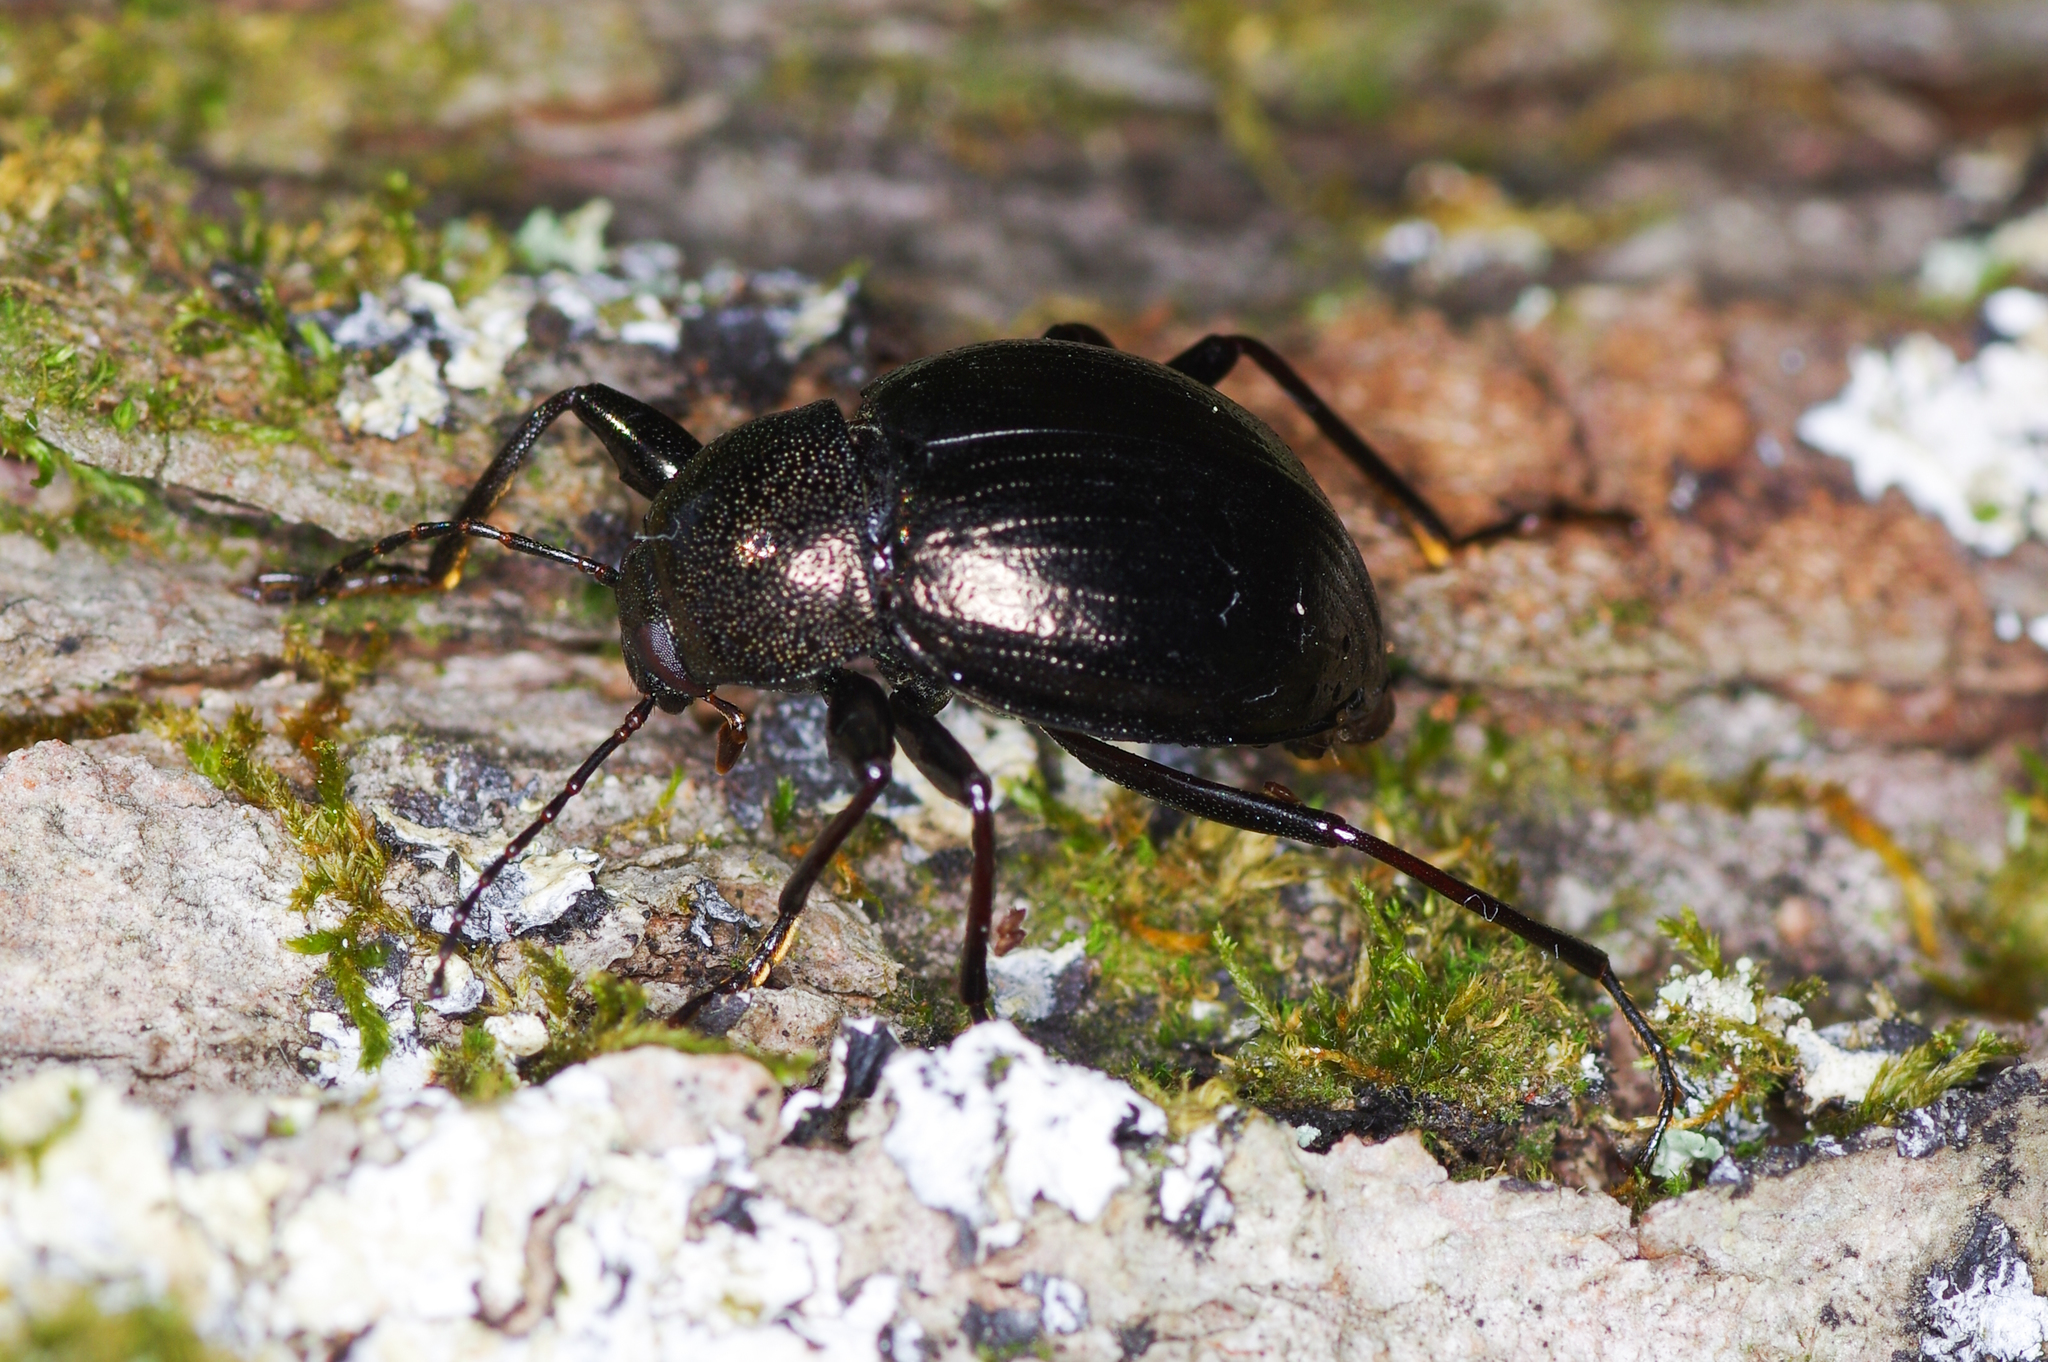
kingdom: Animalia
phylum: Arthropoda
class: Insecta
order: Coleoptera
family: Tenebrionidae
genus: Meracantha
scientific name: Meracantha contracta
